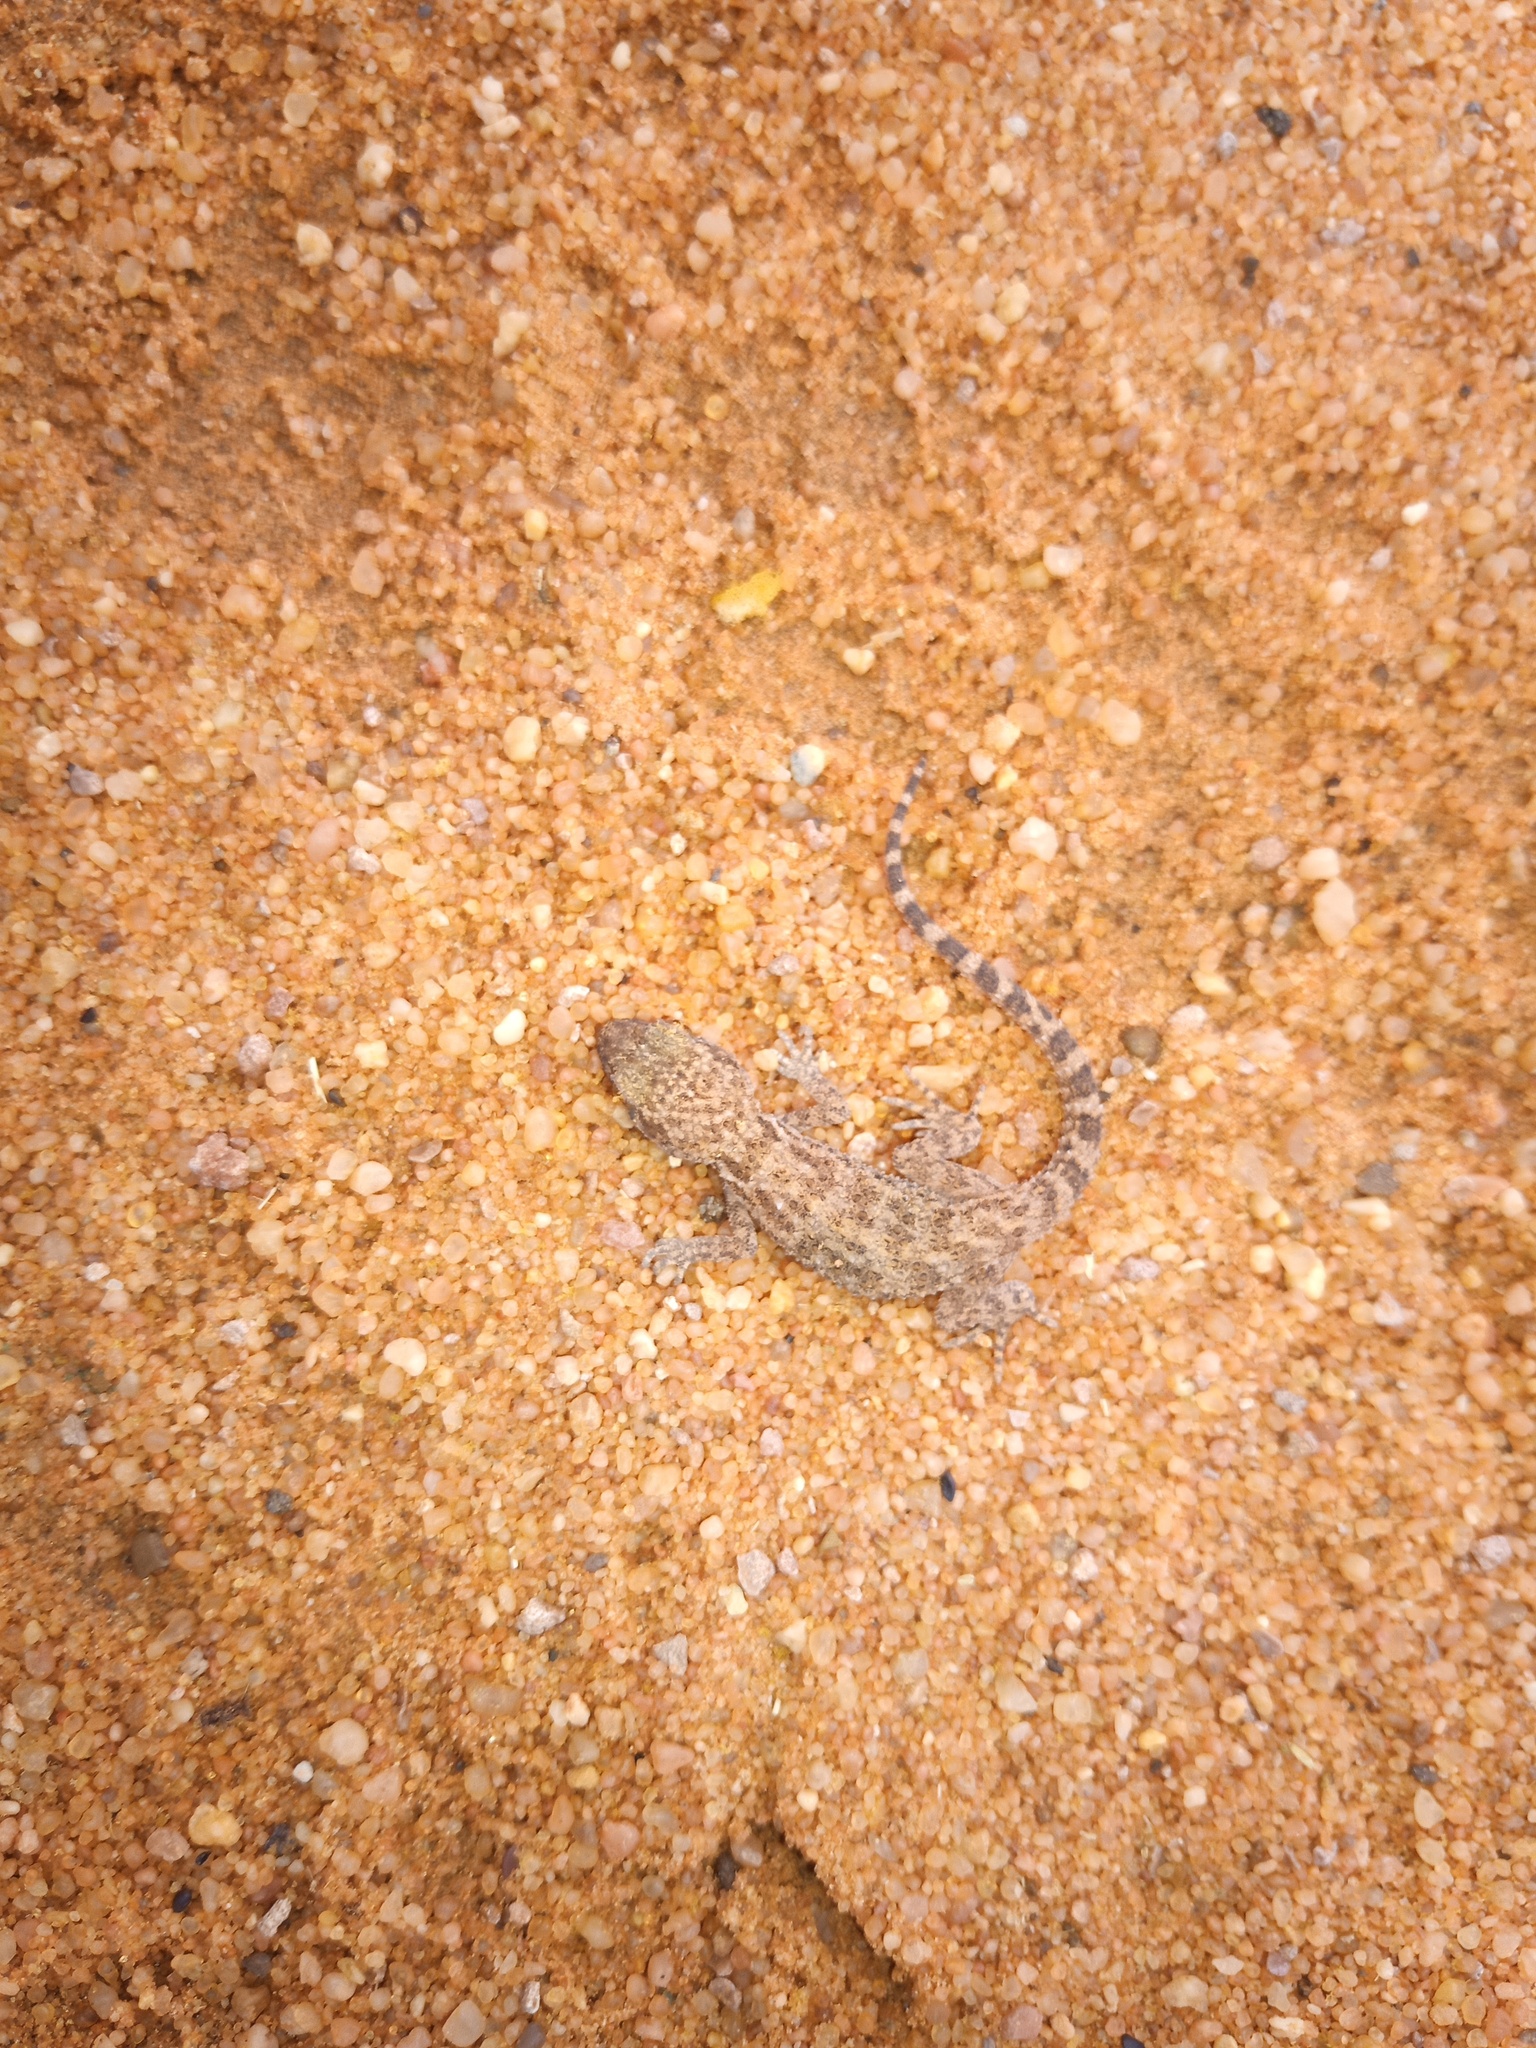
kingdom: Animalia
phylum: Chordata
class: Squamata
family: Gekkonidae
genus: Bunopus
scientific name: Bunopus tuberculatus
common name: Southern tuberculated gecko
